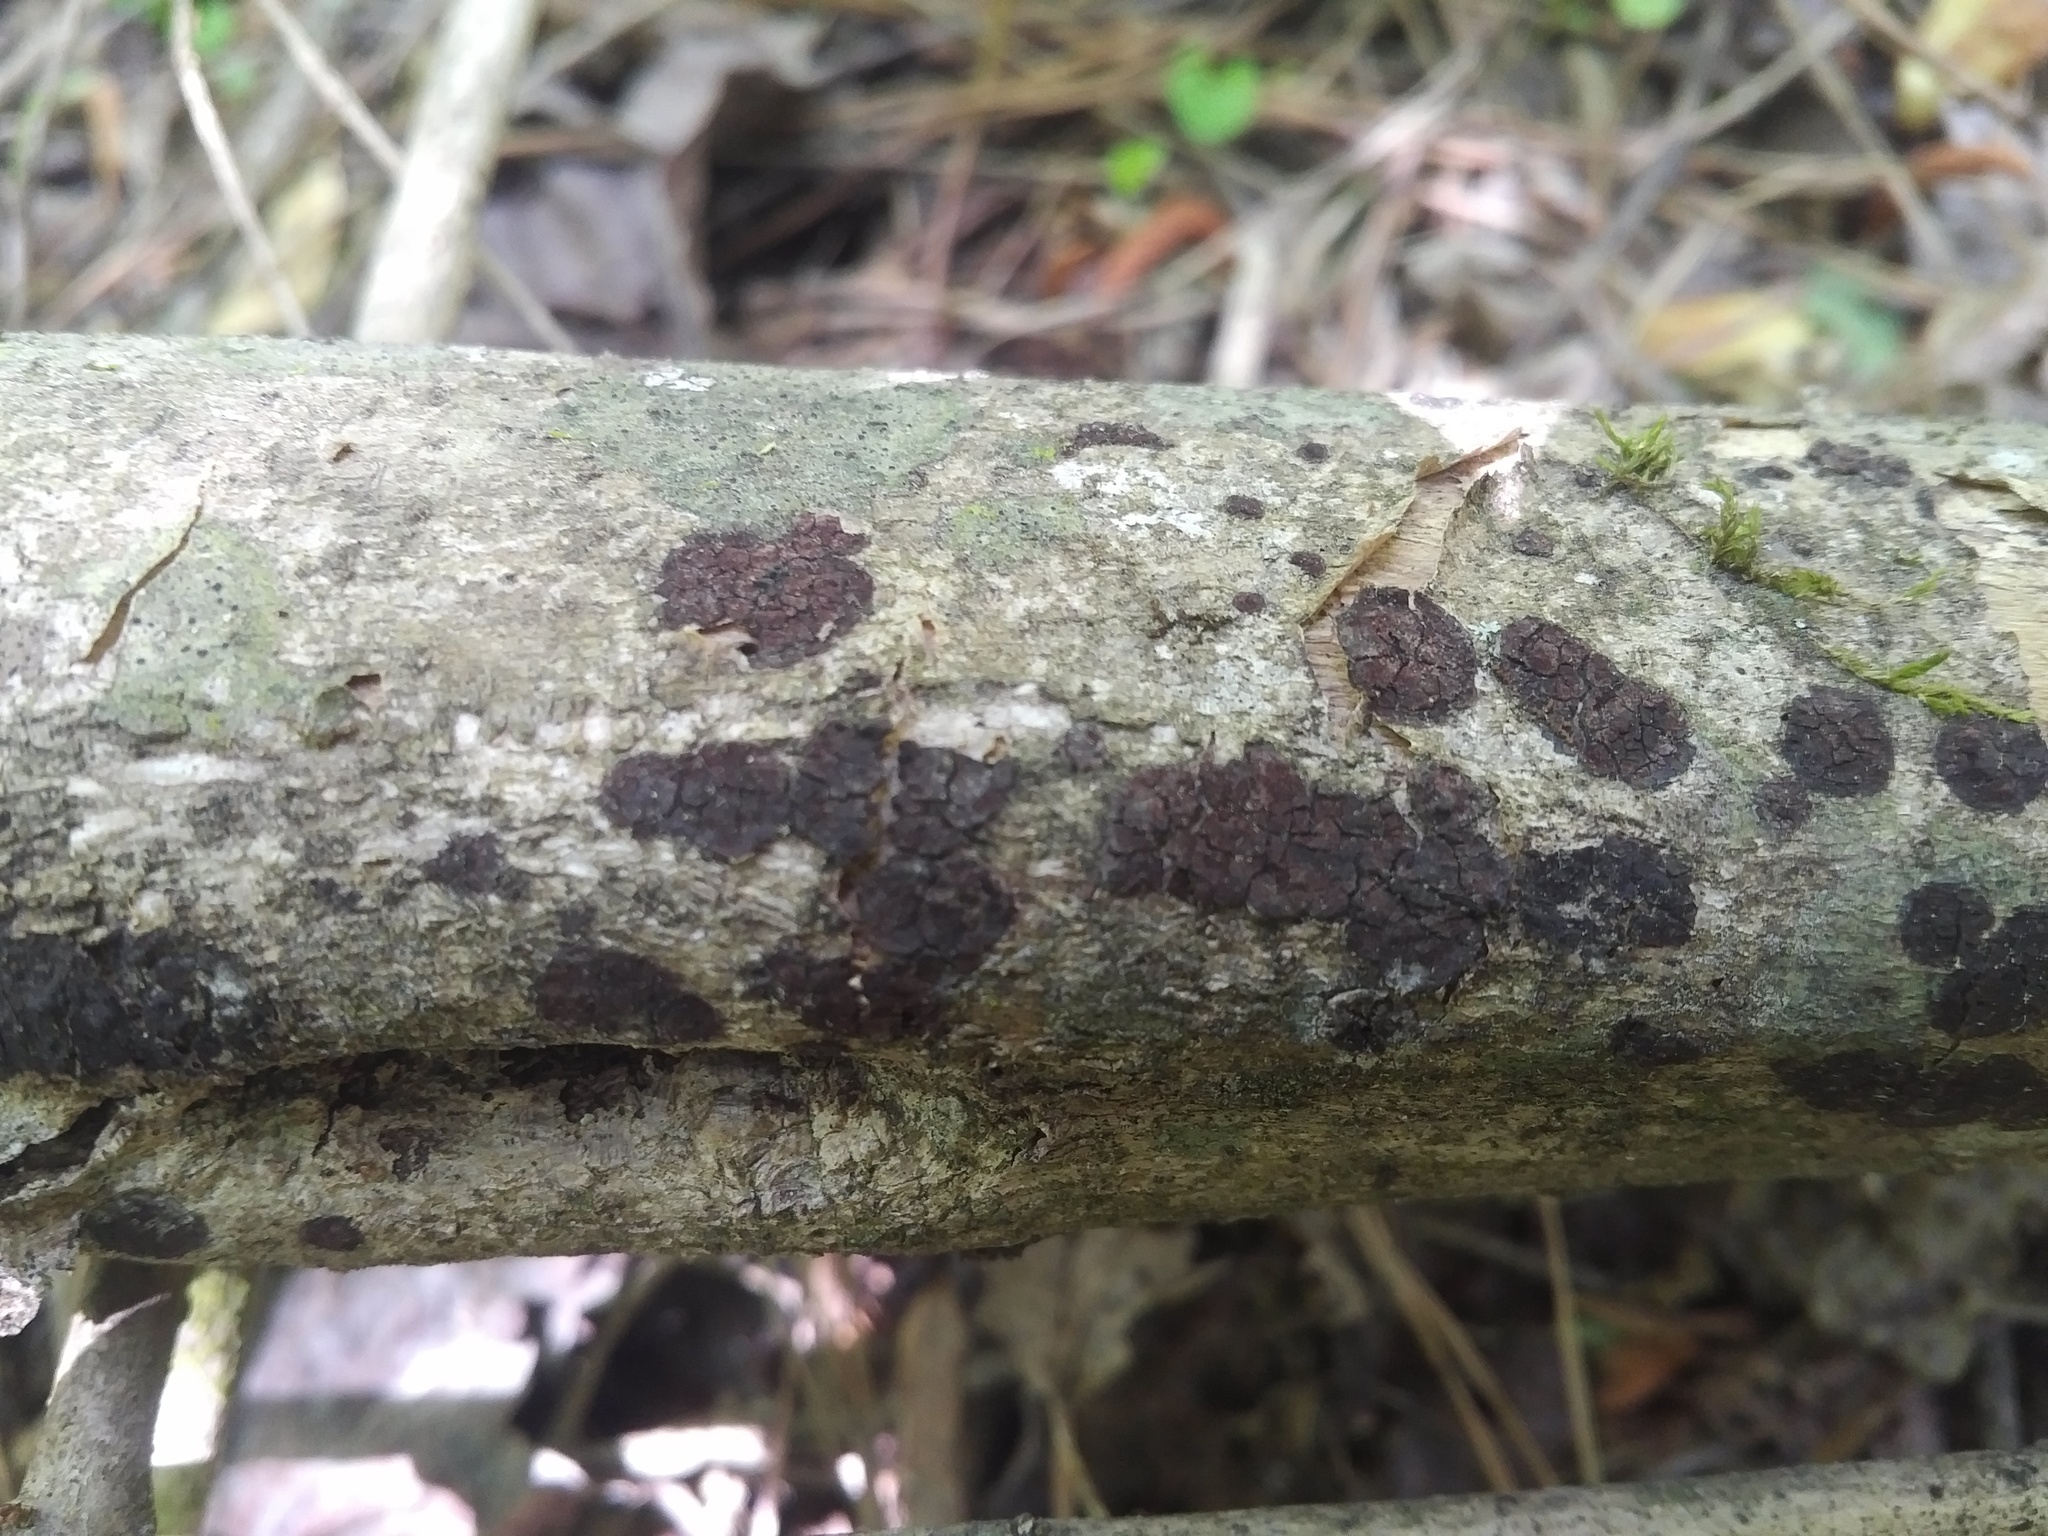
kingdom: Fungi
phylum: Ascomycota
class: Sordariomycetes
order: Xylariales
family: Hypoxylaceae
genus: Hypoxylon
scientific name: Hypoxylon rubiginosum
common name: Rusty woodwart
